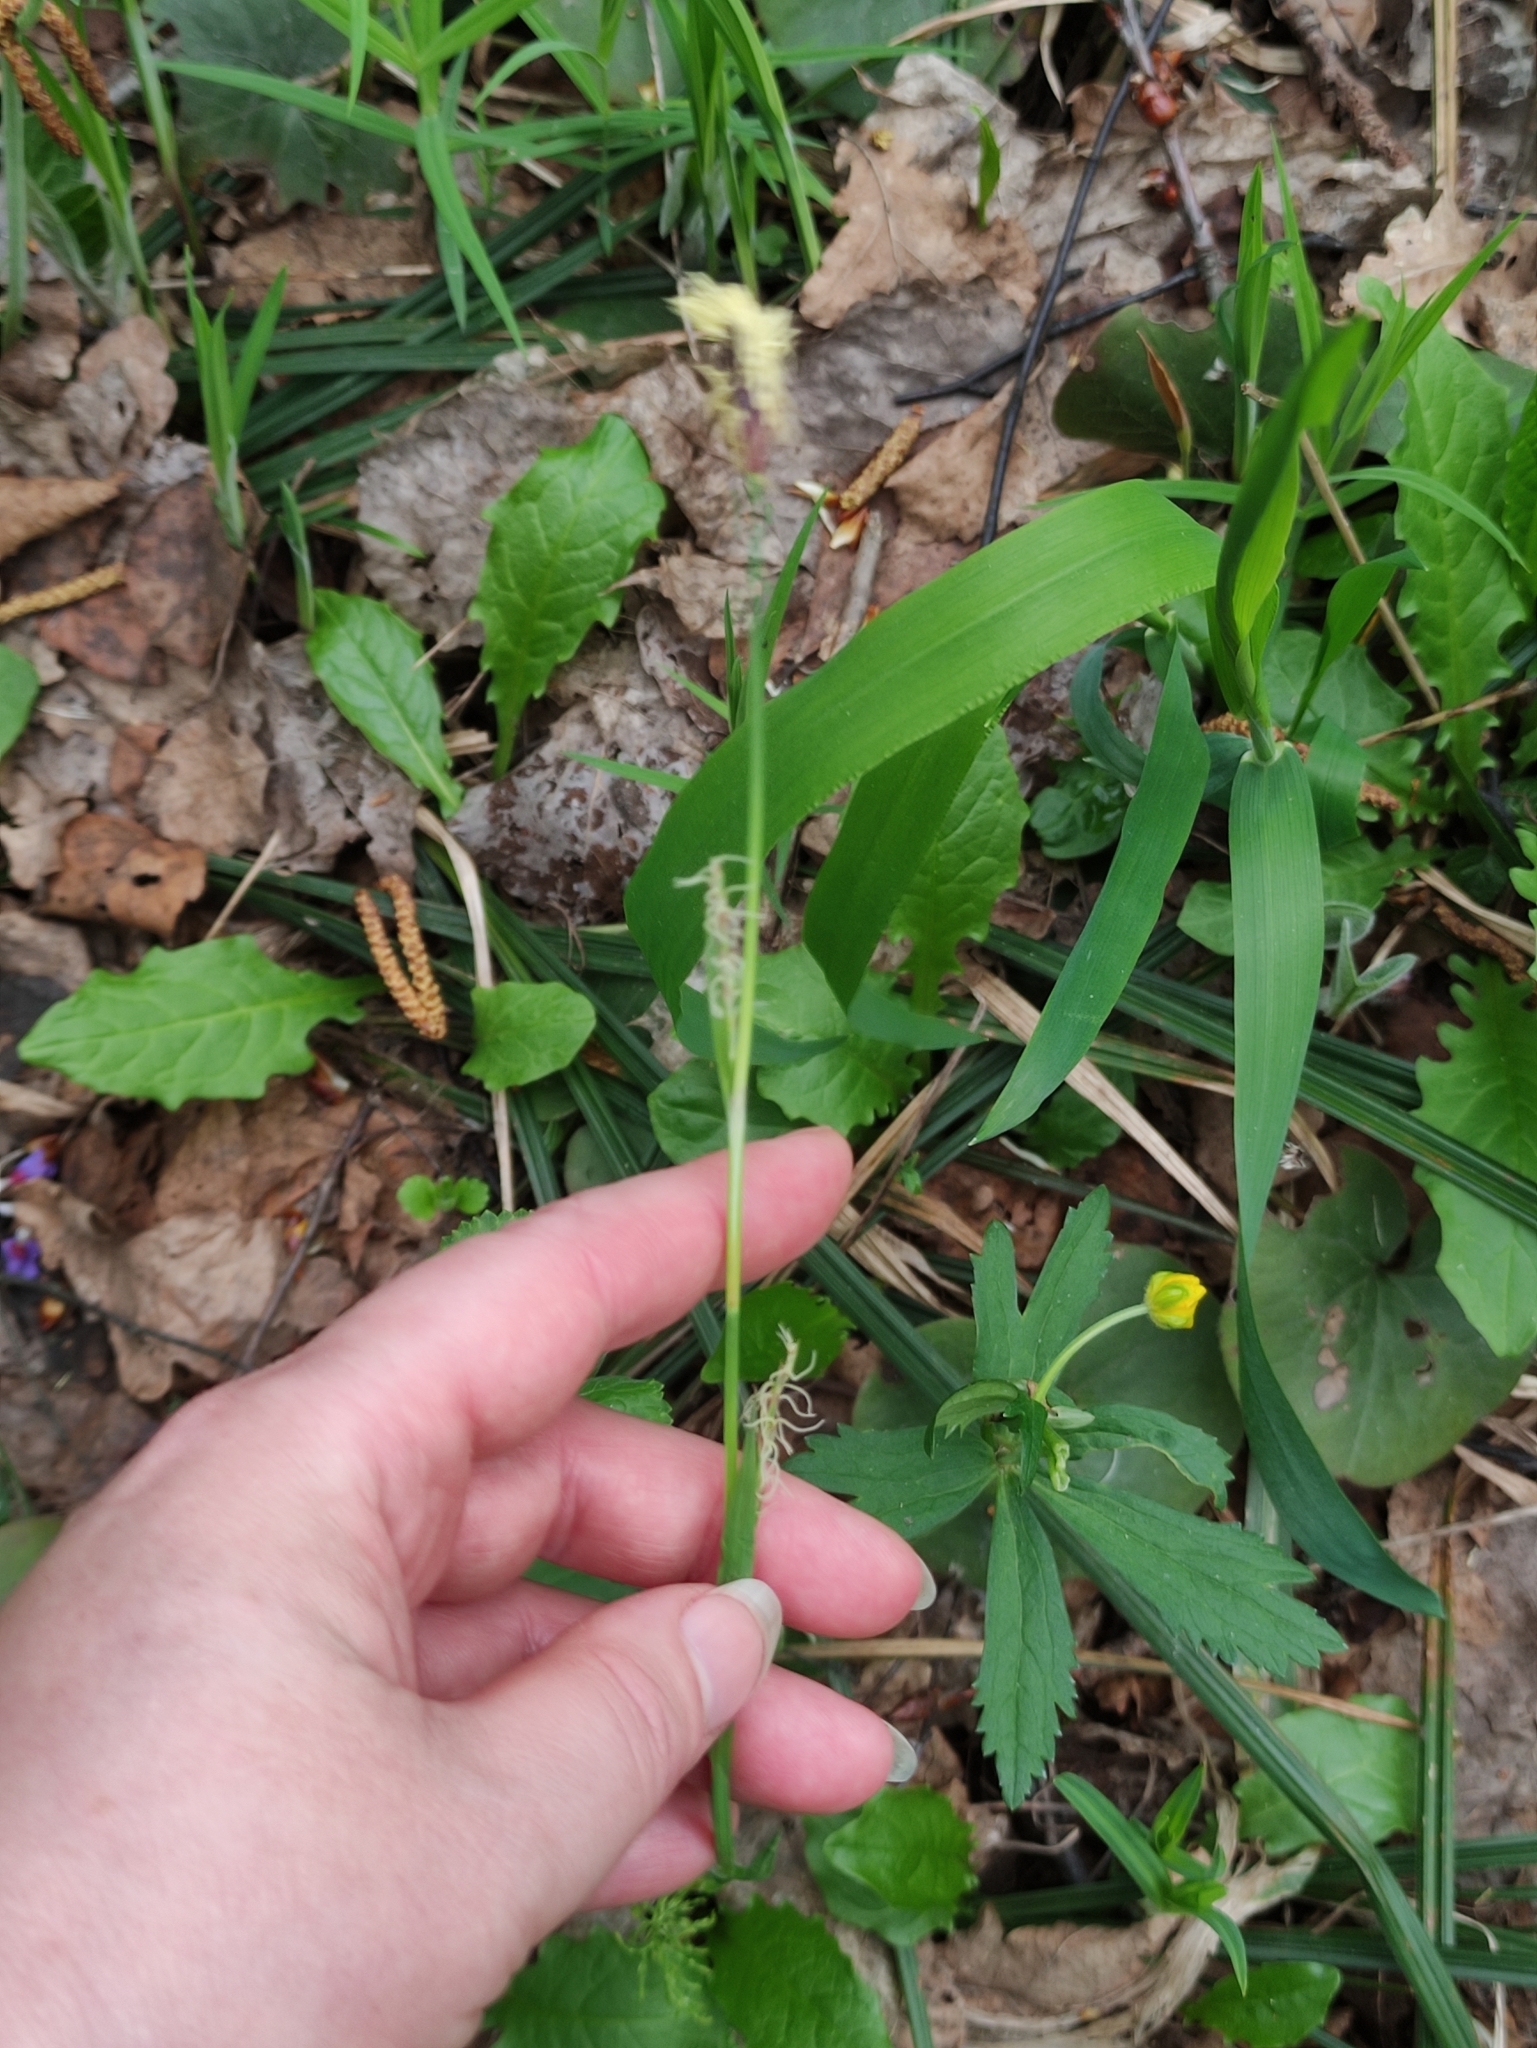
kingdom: Plantae
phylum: Tracheophyta
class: Liliopsida
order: Poales
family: Cyperaceae
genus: Carex
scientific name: Carex pilosa
